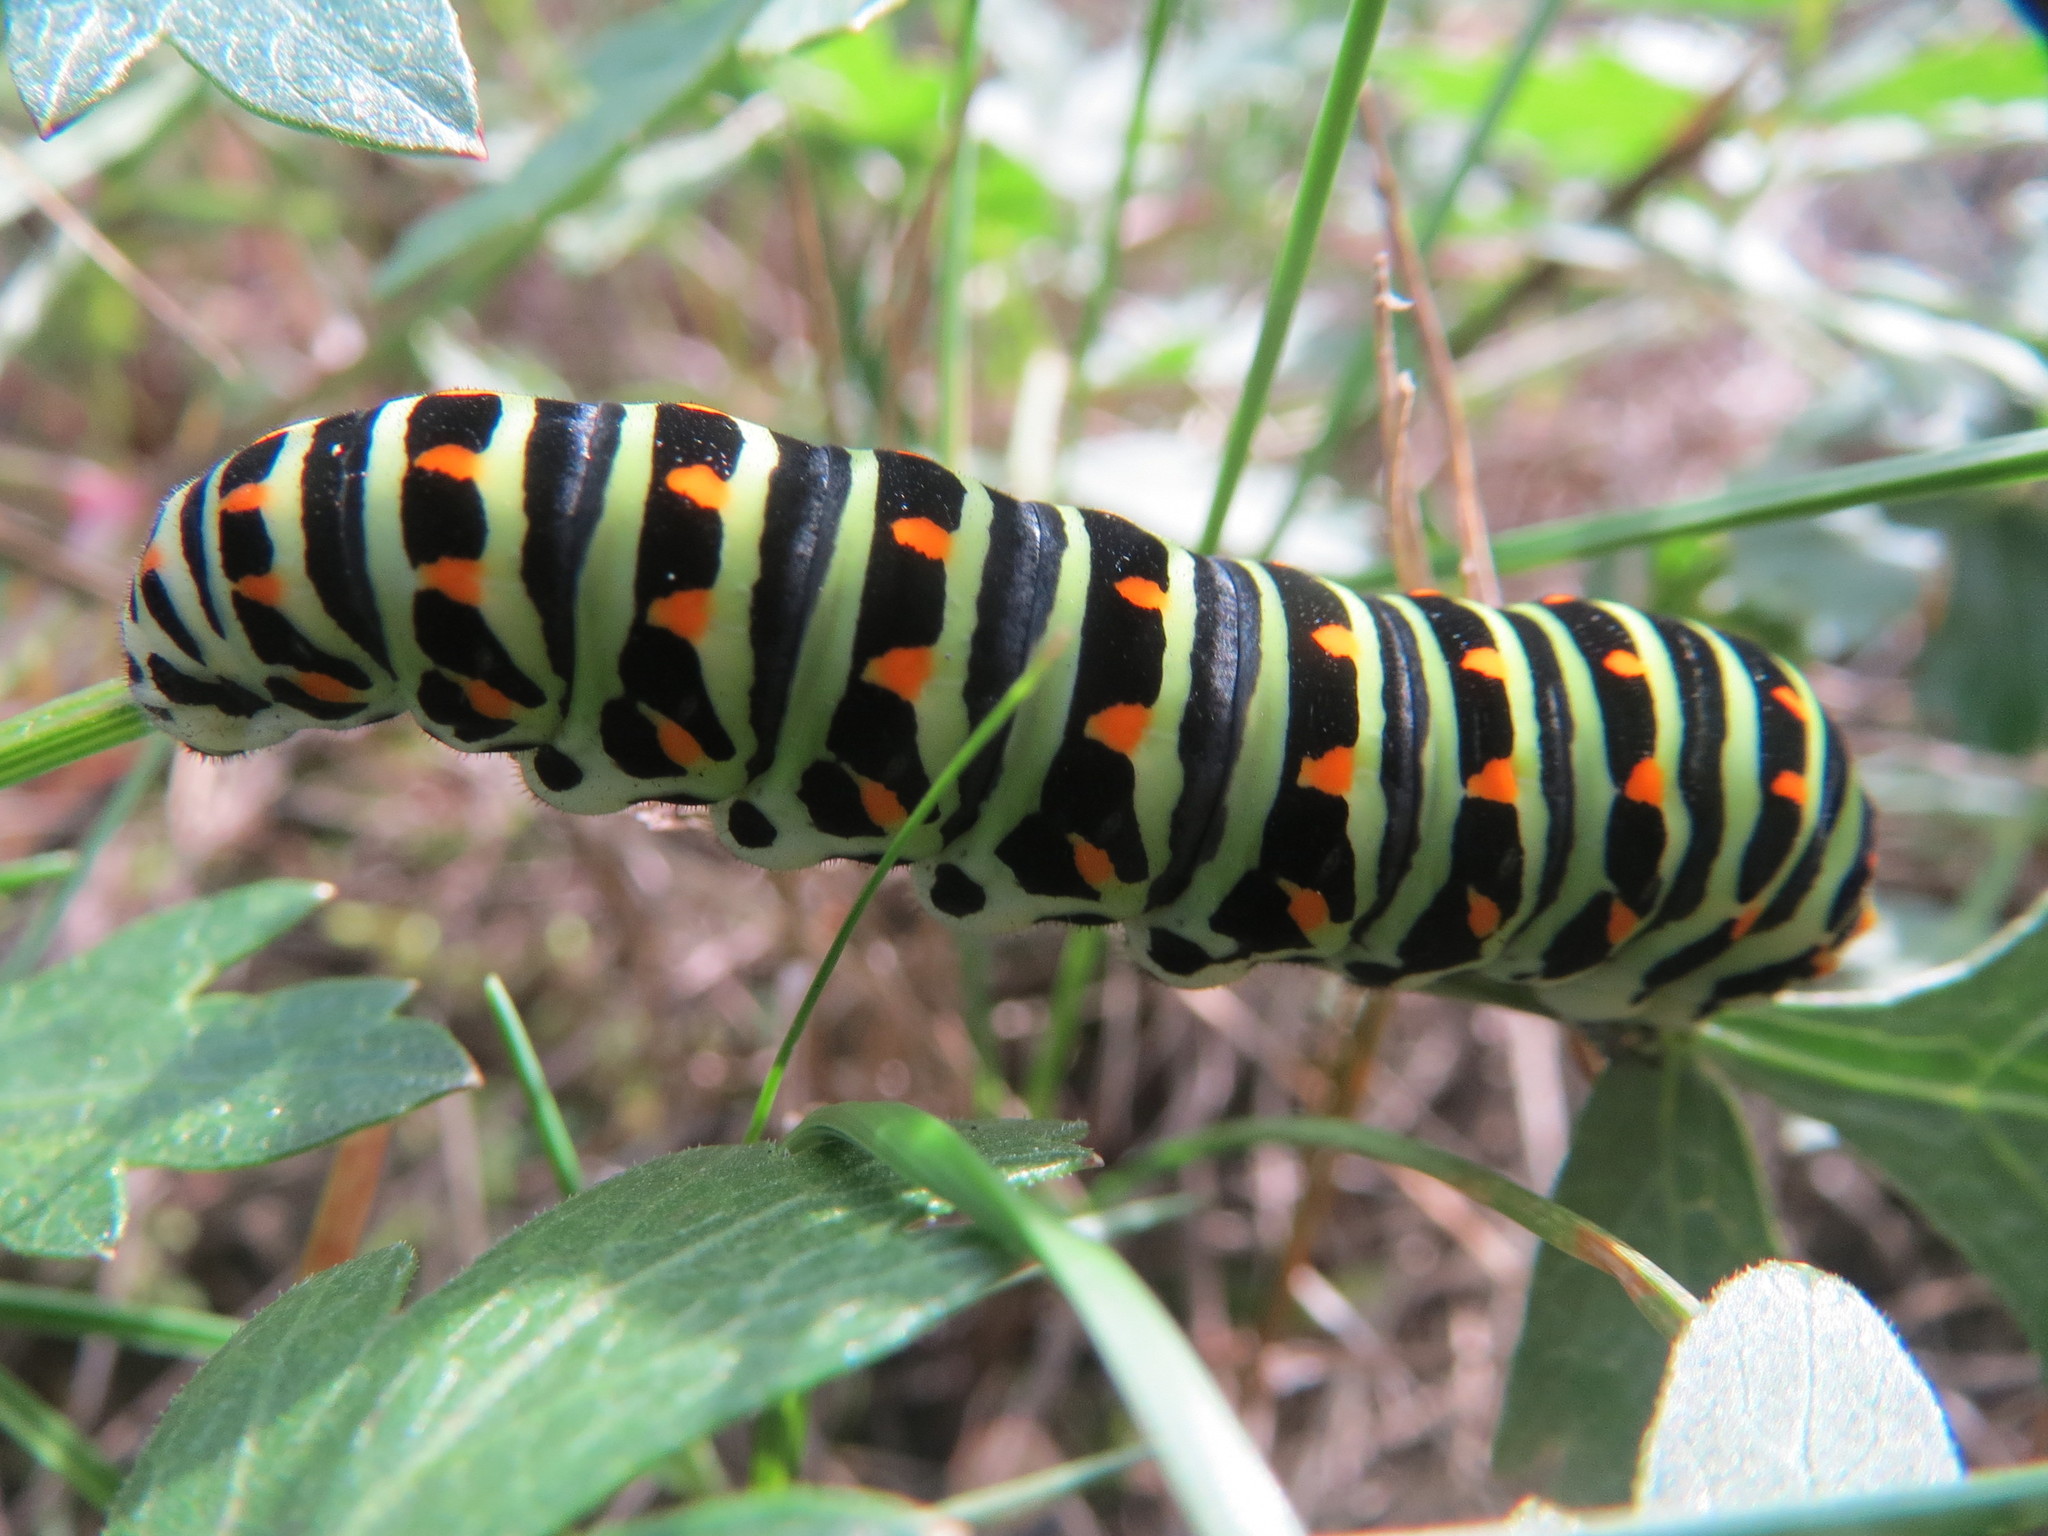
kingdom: Animalia
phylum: Arthropoda
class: Insecta
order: Lepidoptera
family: Papilionidae
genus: Papilio
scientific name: Papilio machaon
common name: Swallowtail
